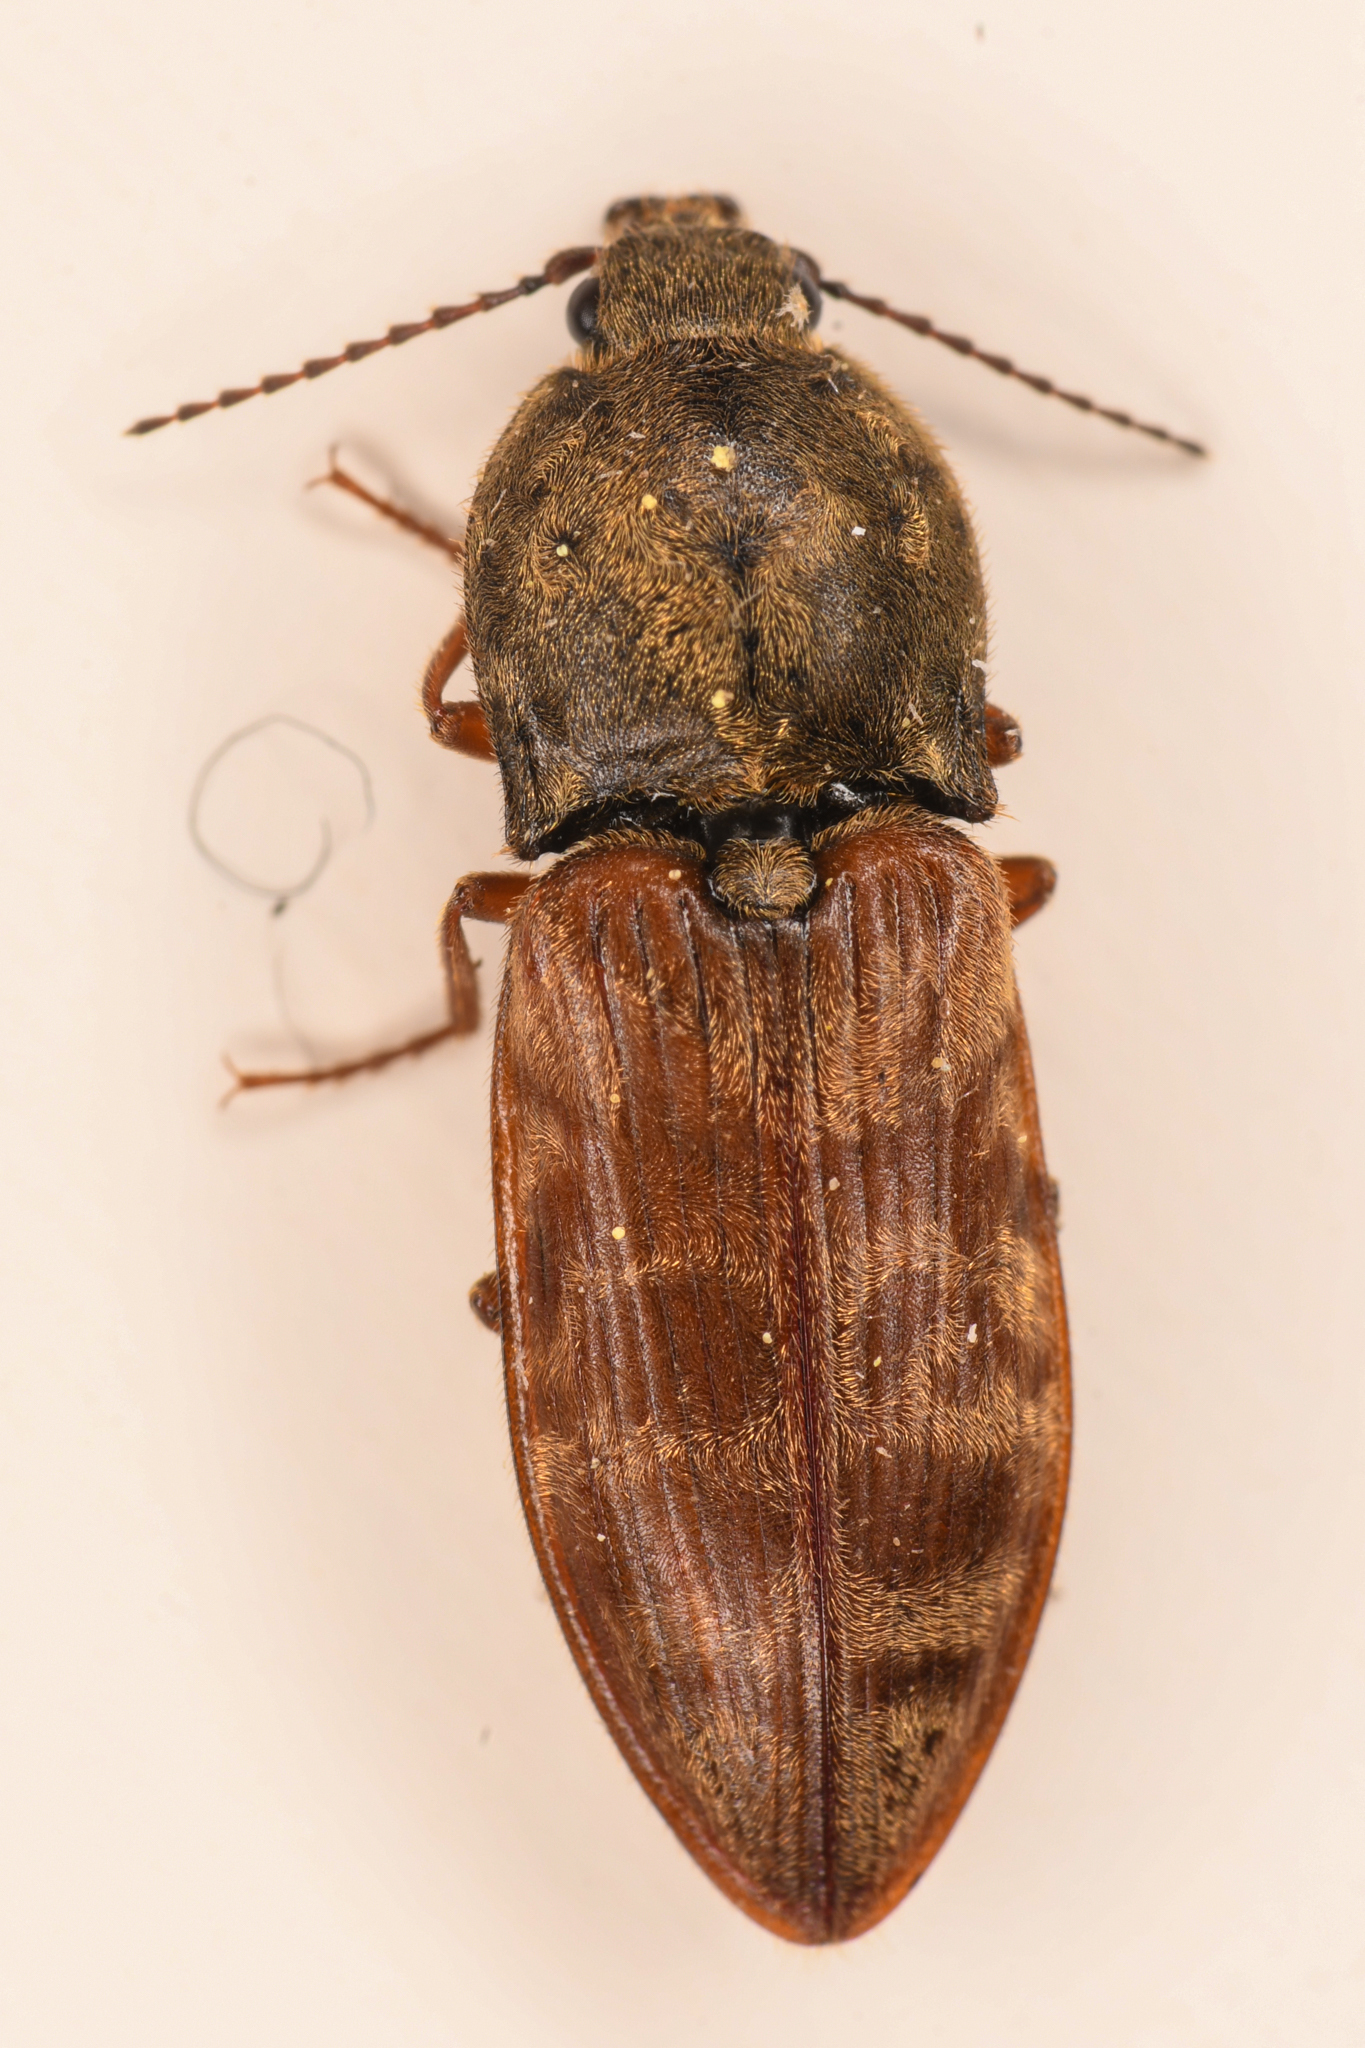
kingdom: Animalia
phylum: Arthropoda
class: Insecta
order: Coleoptera
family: Elateridae
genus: Prosternon
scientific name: Prosternon bombycinum
